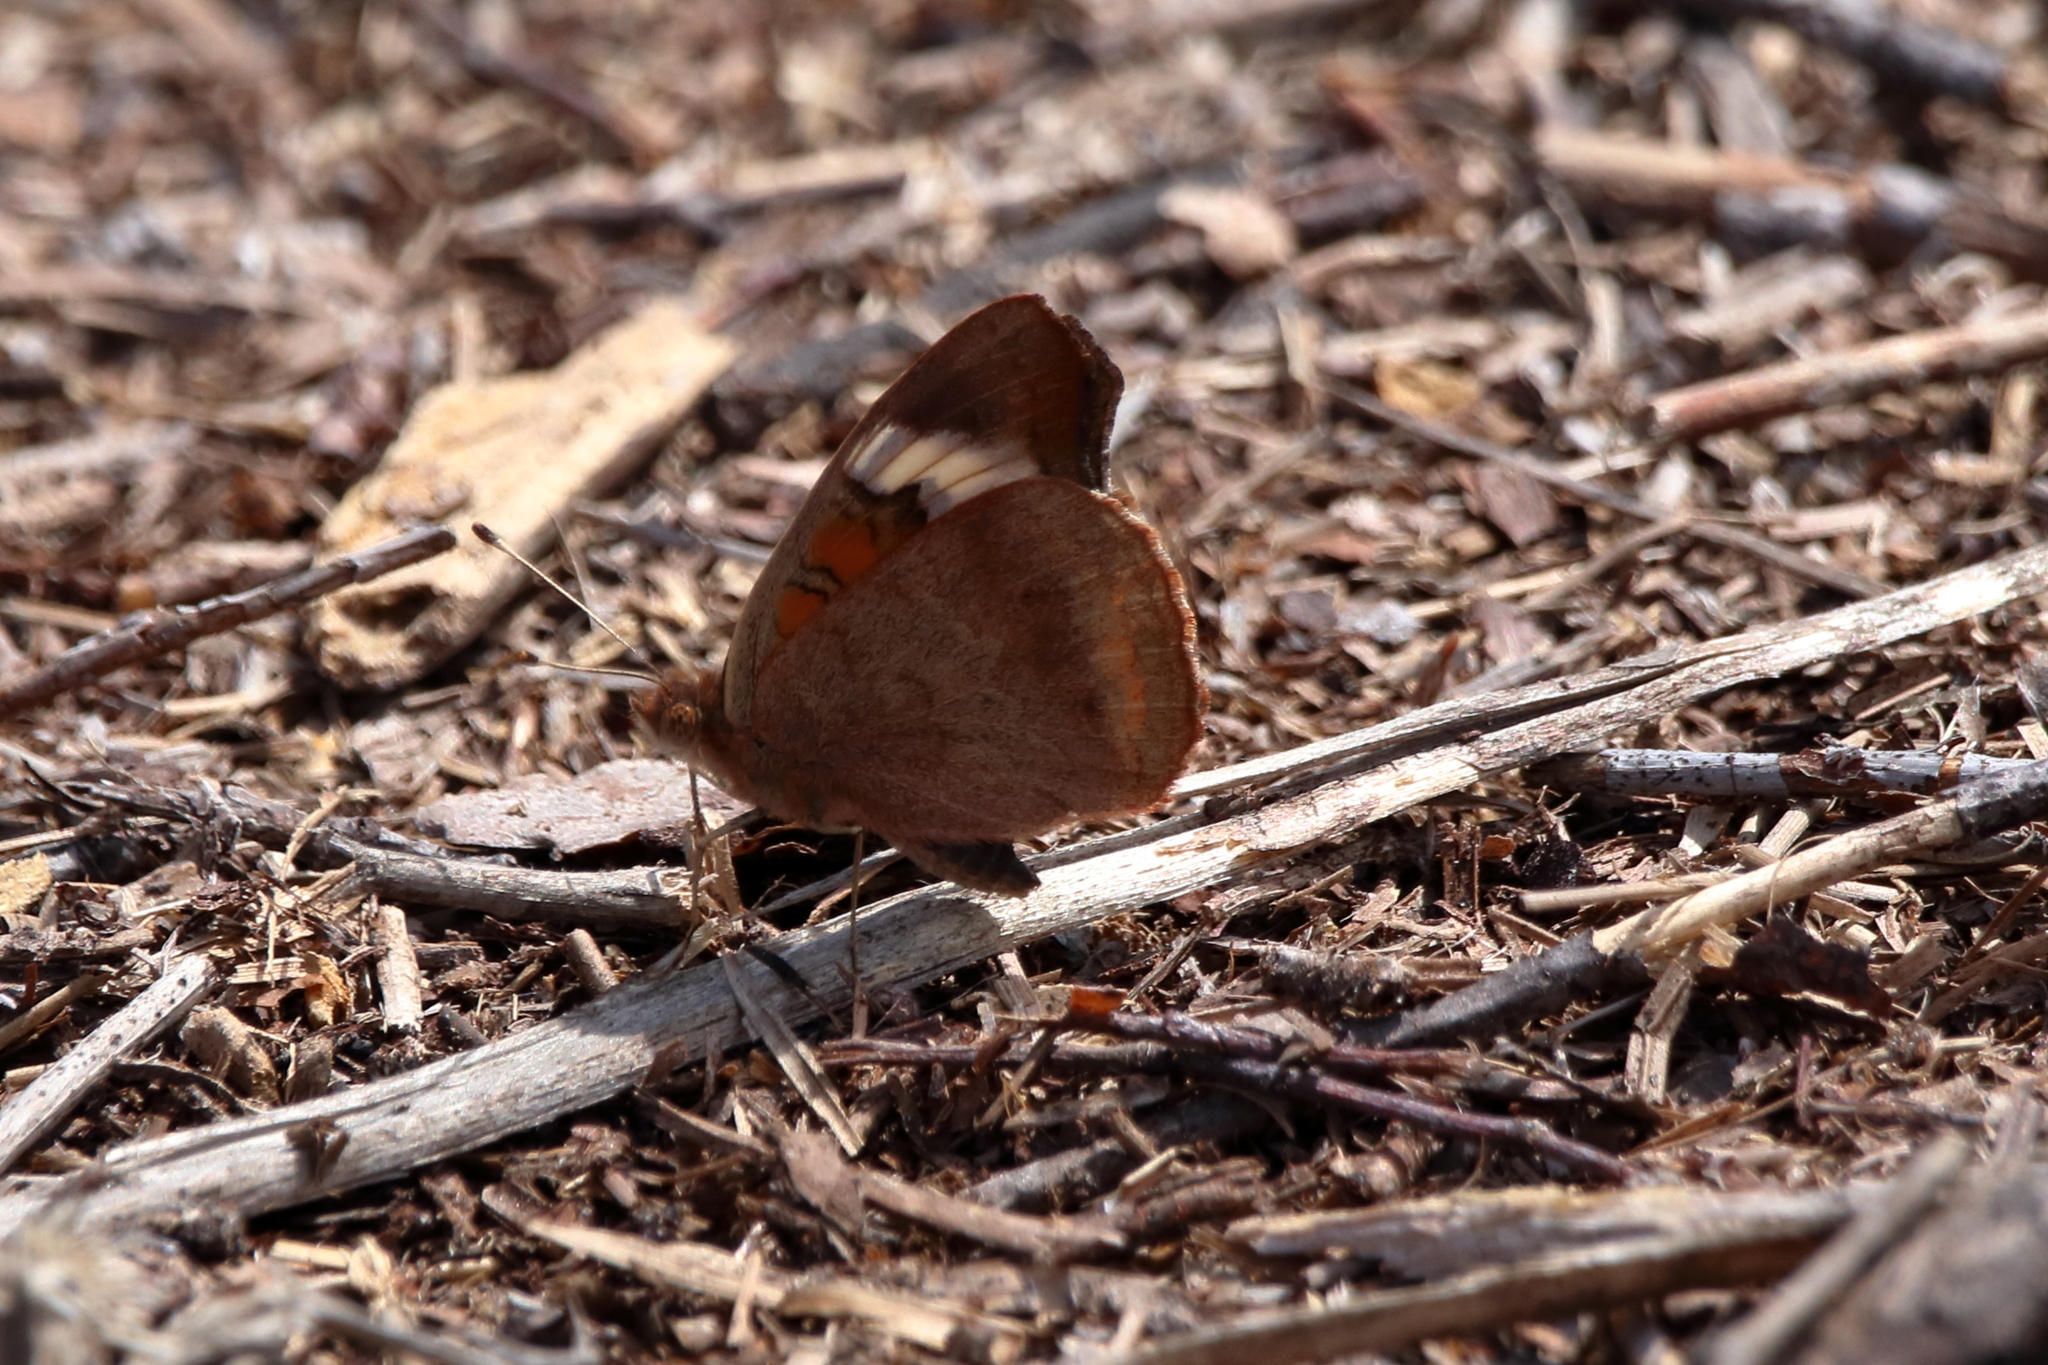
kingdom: Animalia
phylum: Arthropoda
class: Insecta
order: Lepidoptera
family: Nymphalidae
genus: Junonia
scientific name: Junonia coenia
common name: Common buckeye
